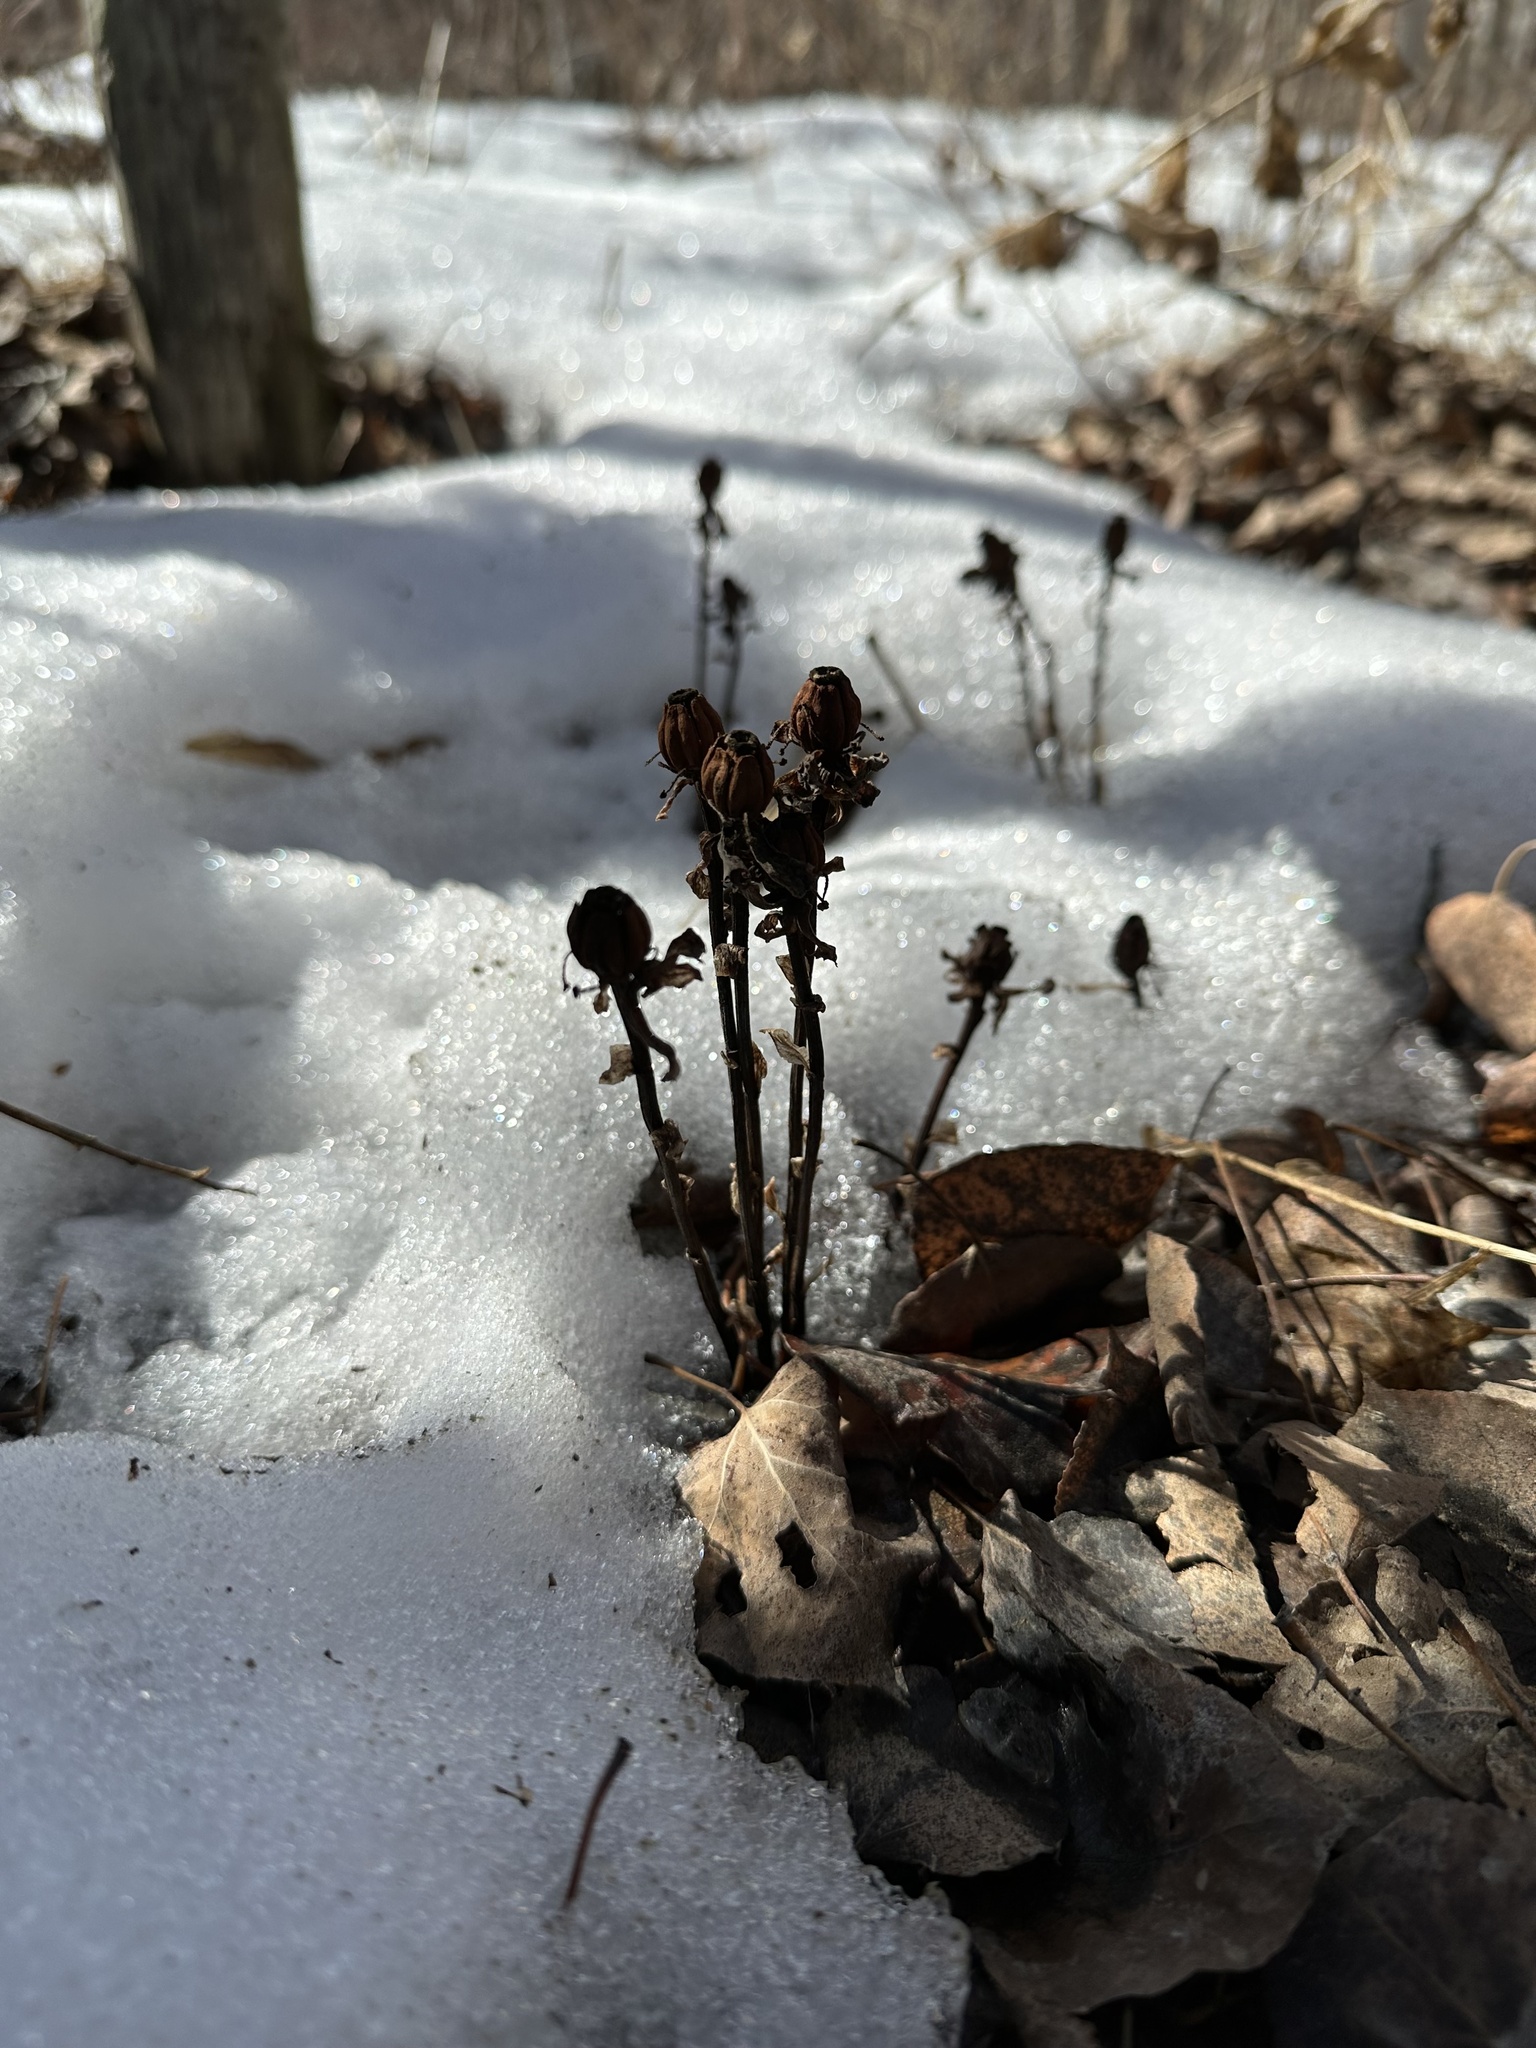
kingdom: Plantae
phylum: Tracheophyta
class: Magnoliopsida
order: Ericales
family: Ericaceae
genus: Monotropa
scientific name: Monotropa uniflora
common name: Convulsion root
